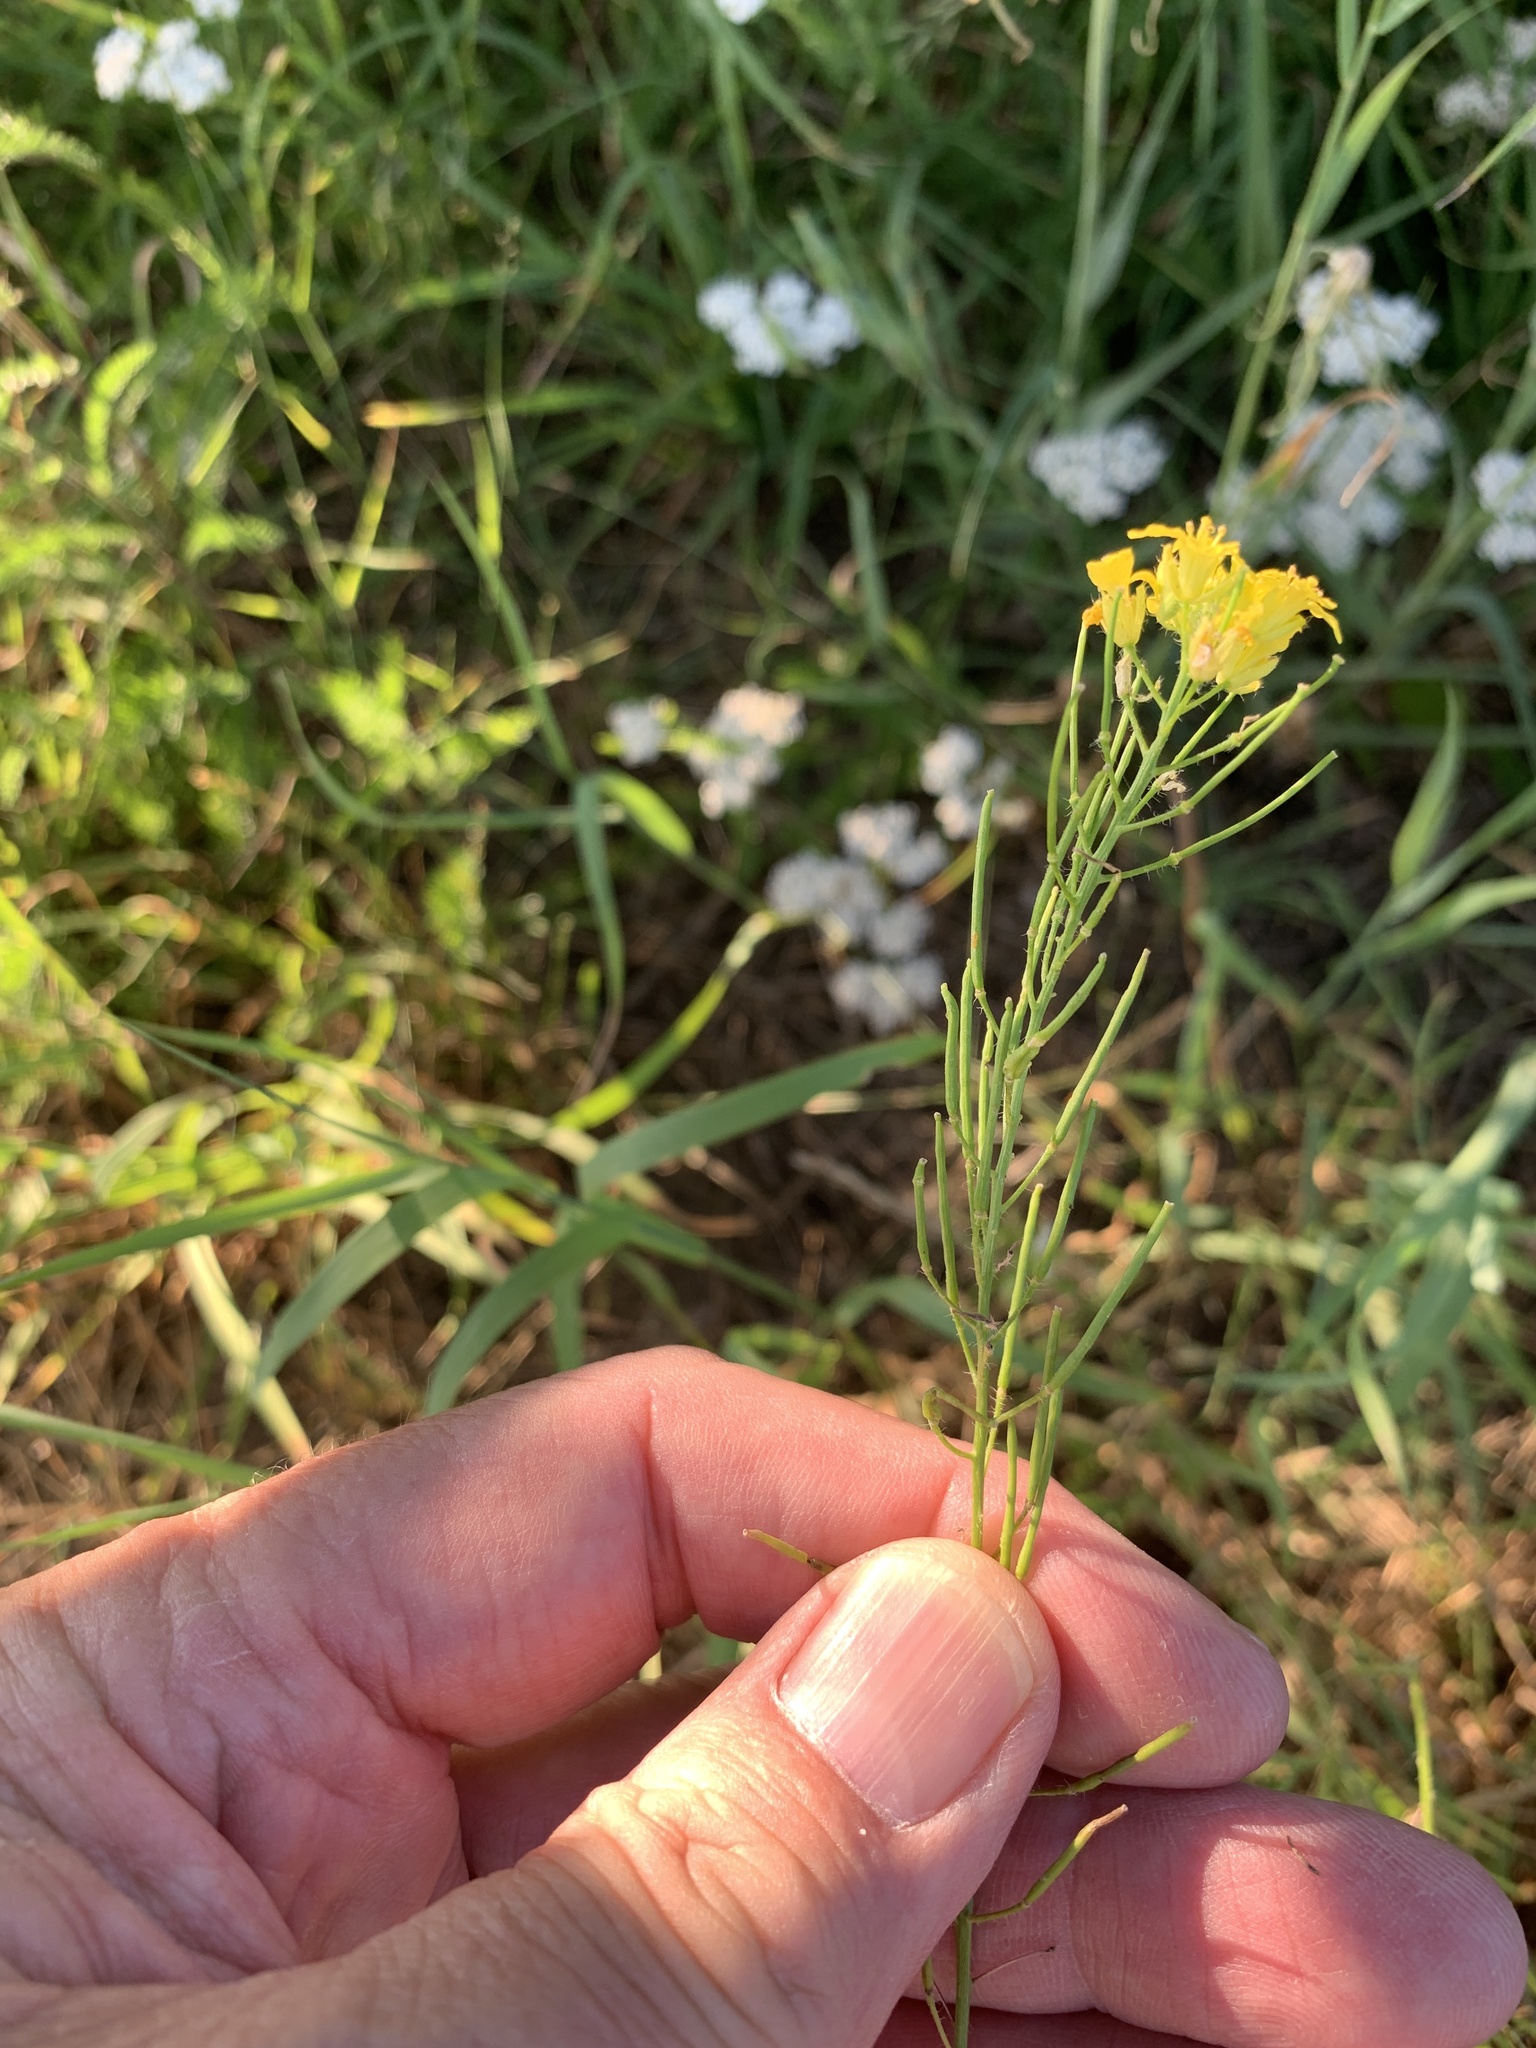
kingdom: Plantae
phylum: Tracheophyta
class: Magnoliopsida
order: Brassicales
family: Brassicaceae
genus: Sisymbrium
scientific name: Sisymbrium loeselii
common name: False london-rocket
